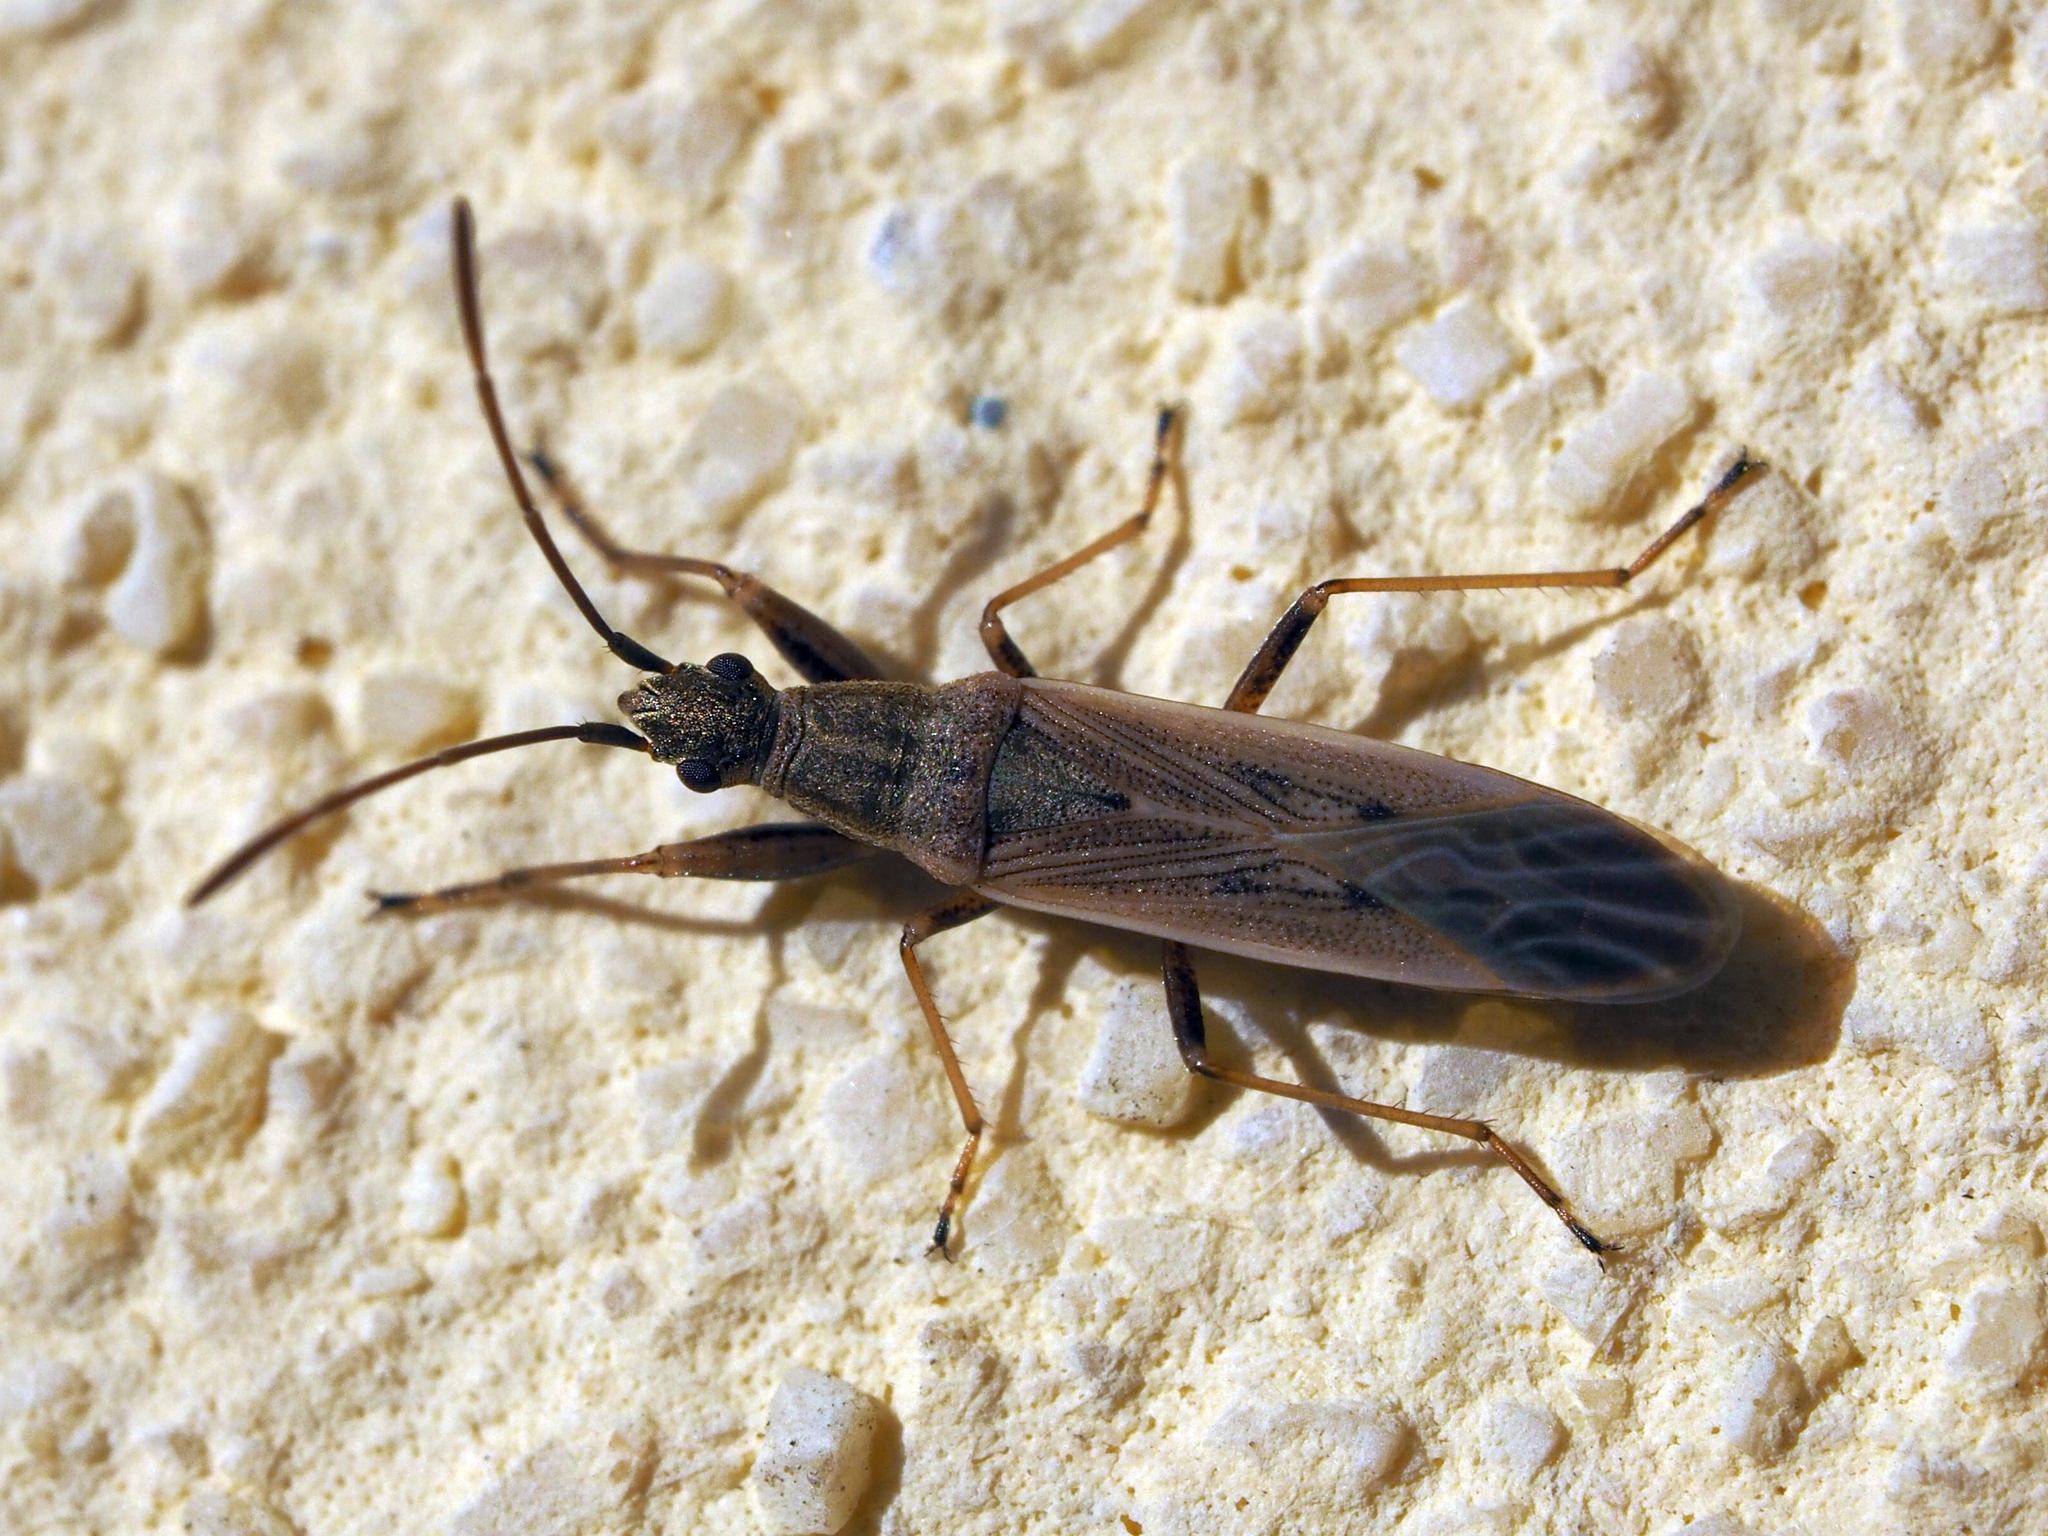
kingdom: Animalia
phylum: Arthropoda
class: Insecta
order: Hemiptera
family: Rhyparochromidae
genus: Paromius
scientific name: Paromius gracilis
